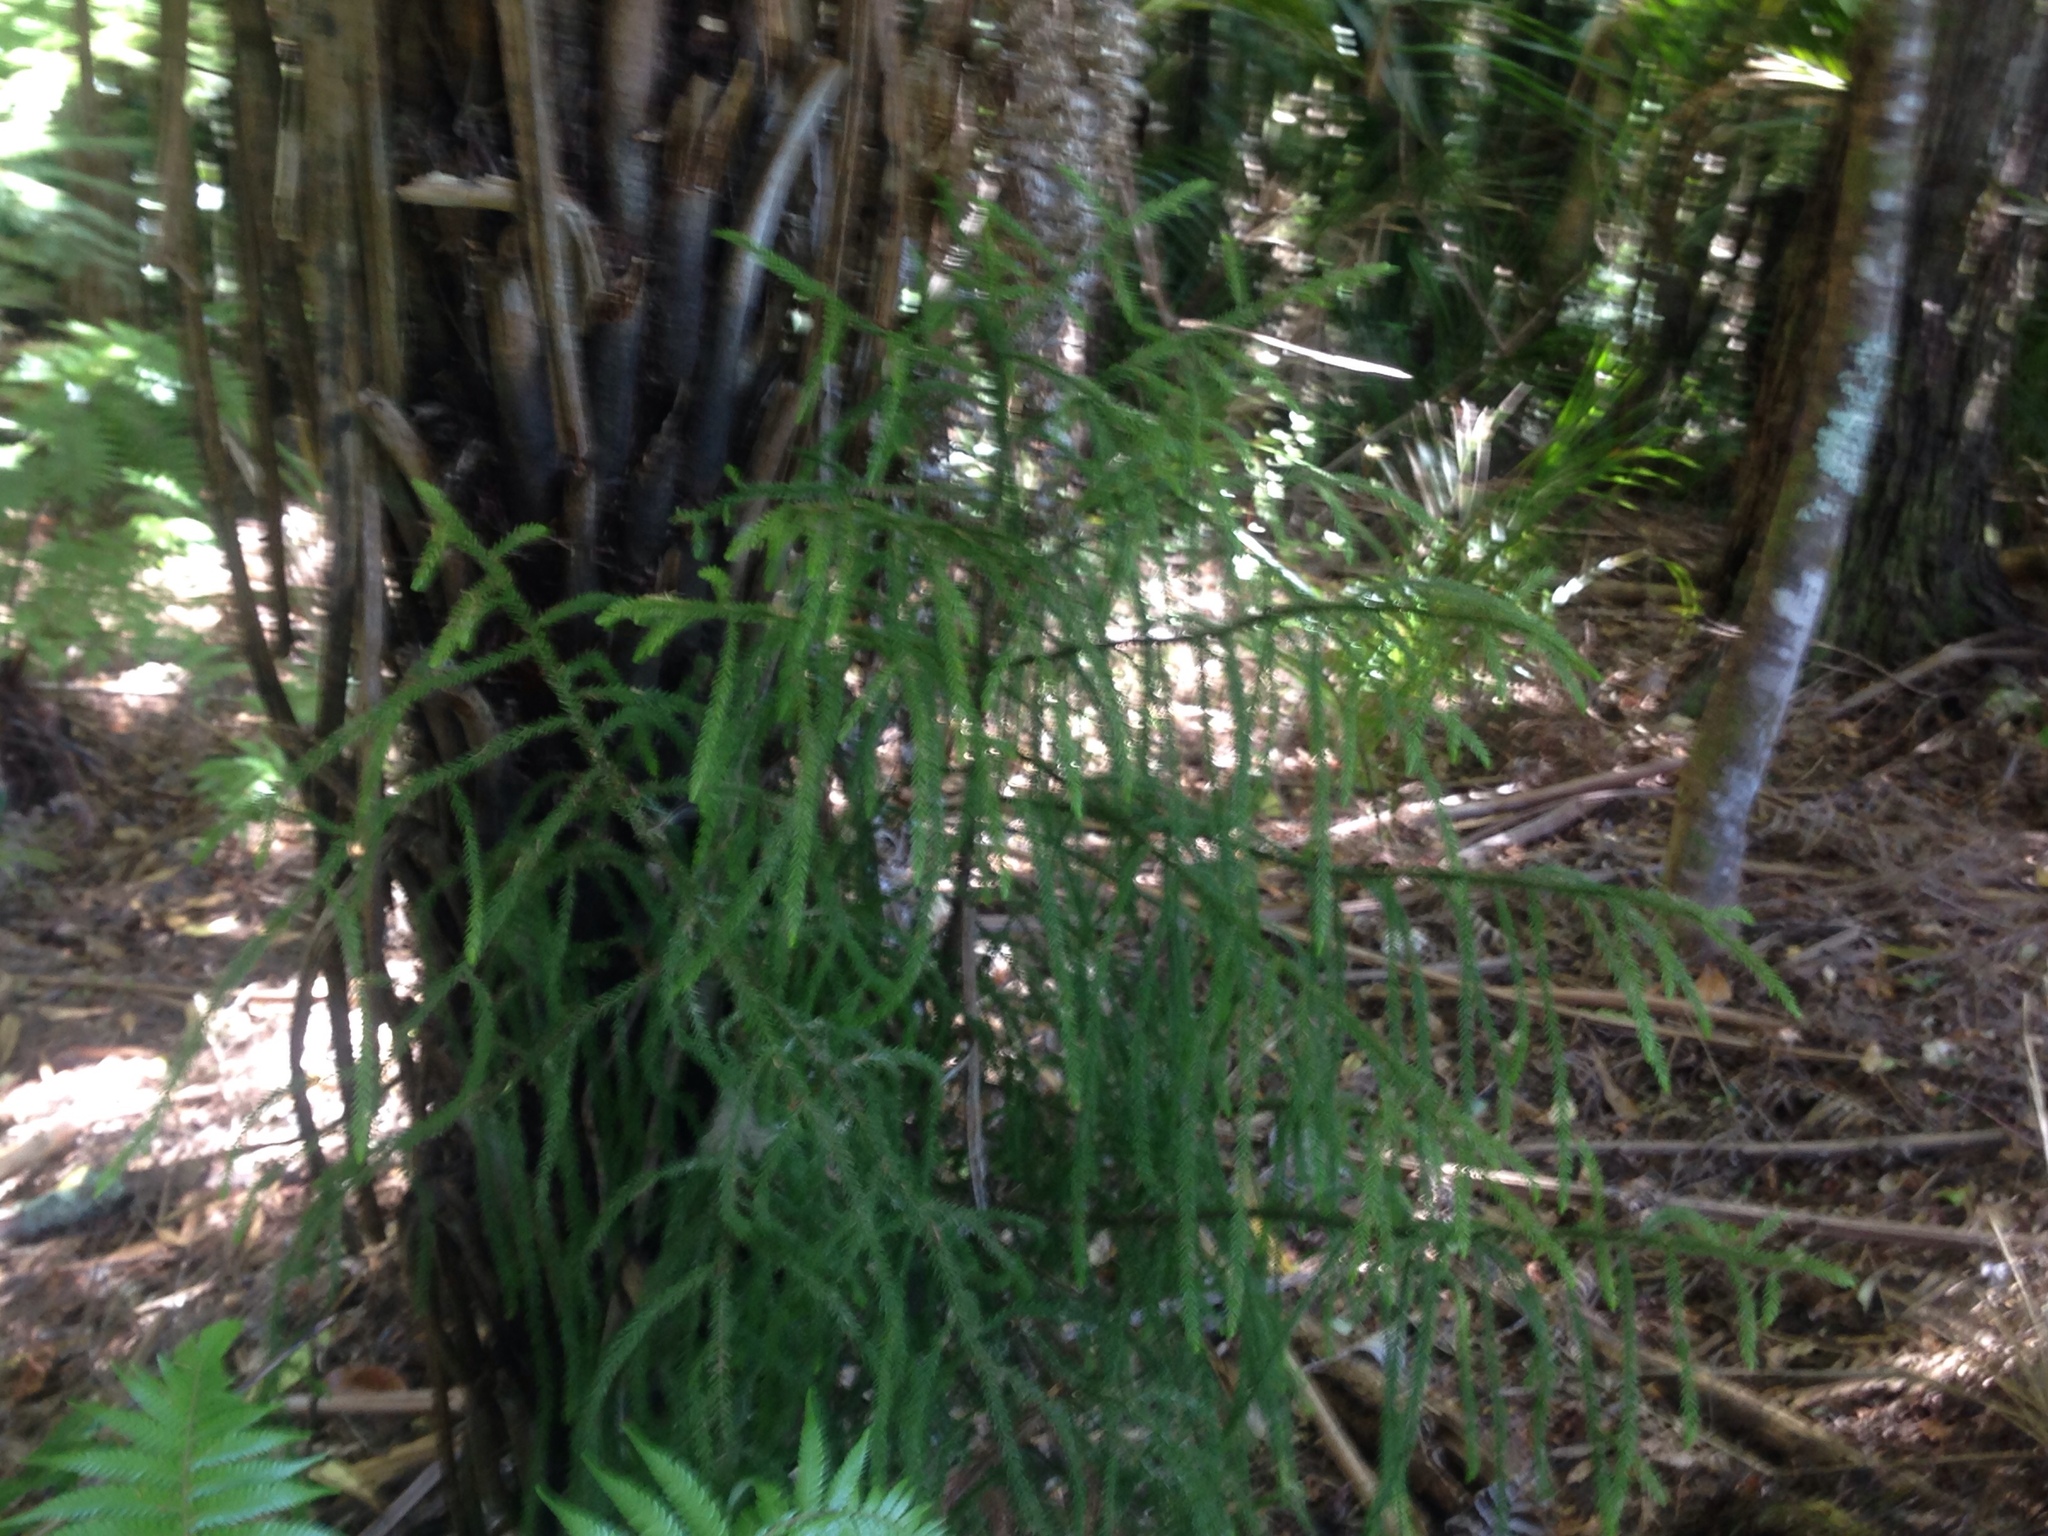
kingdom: Plantae
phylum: Tracheophyta
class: Pinopsida
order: Pinales
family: Podocarpaceae
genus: Dacrydium
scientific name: Dacrydium cupressinum
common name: Red pine
